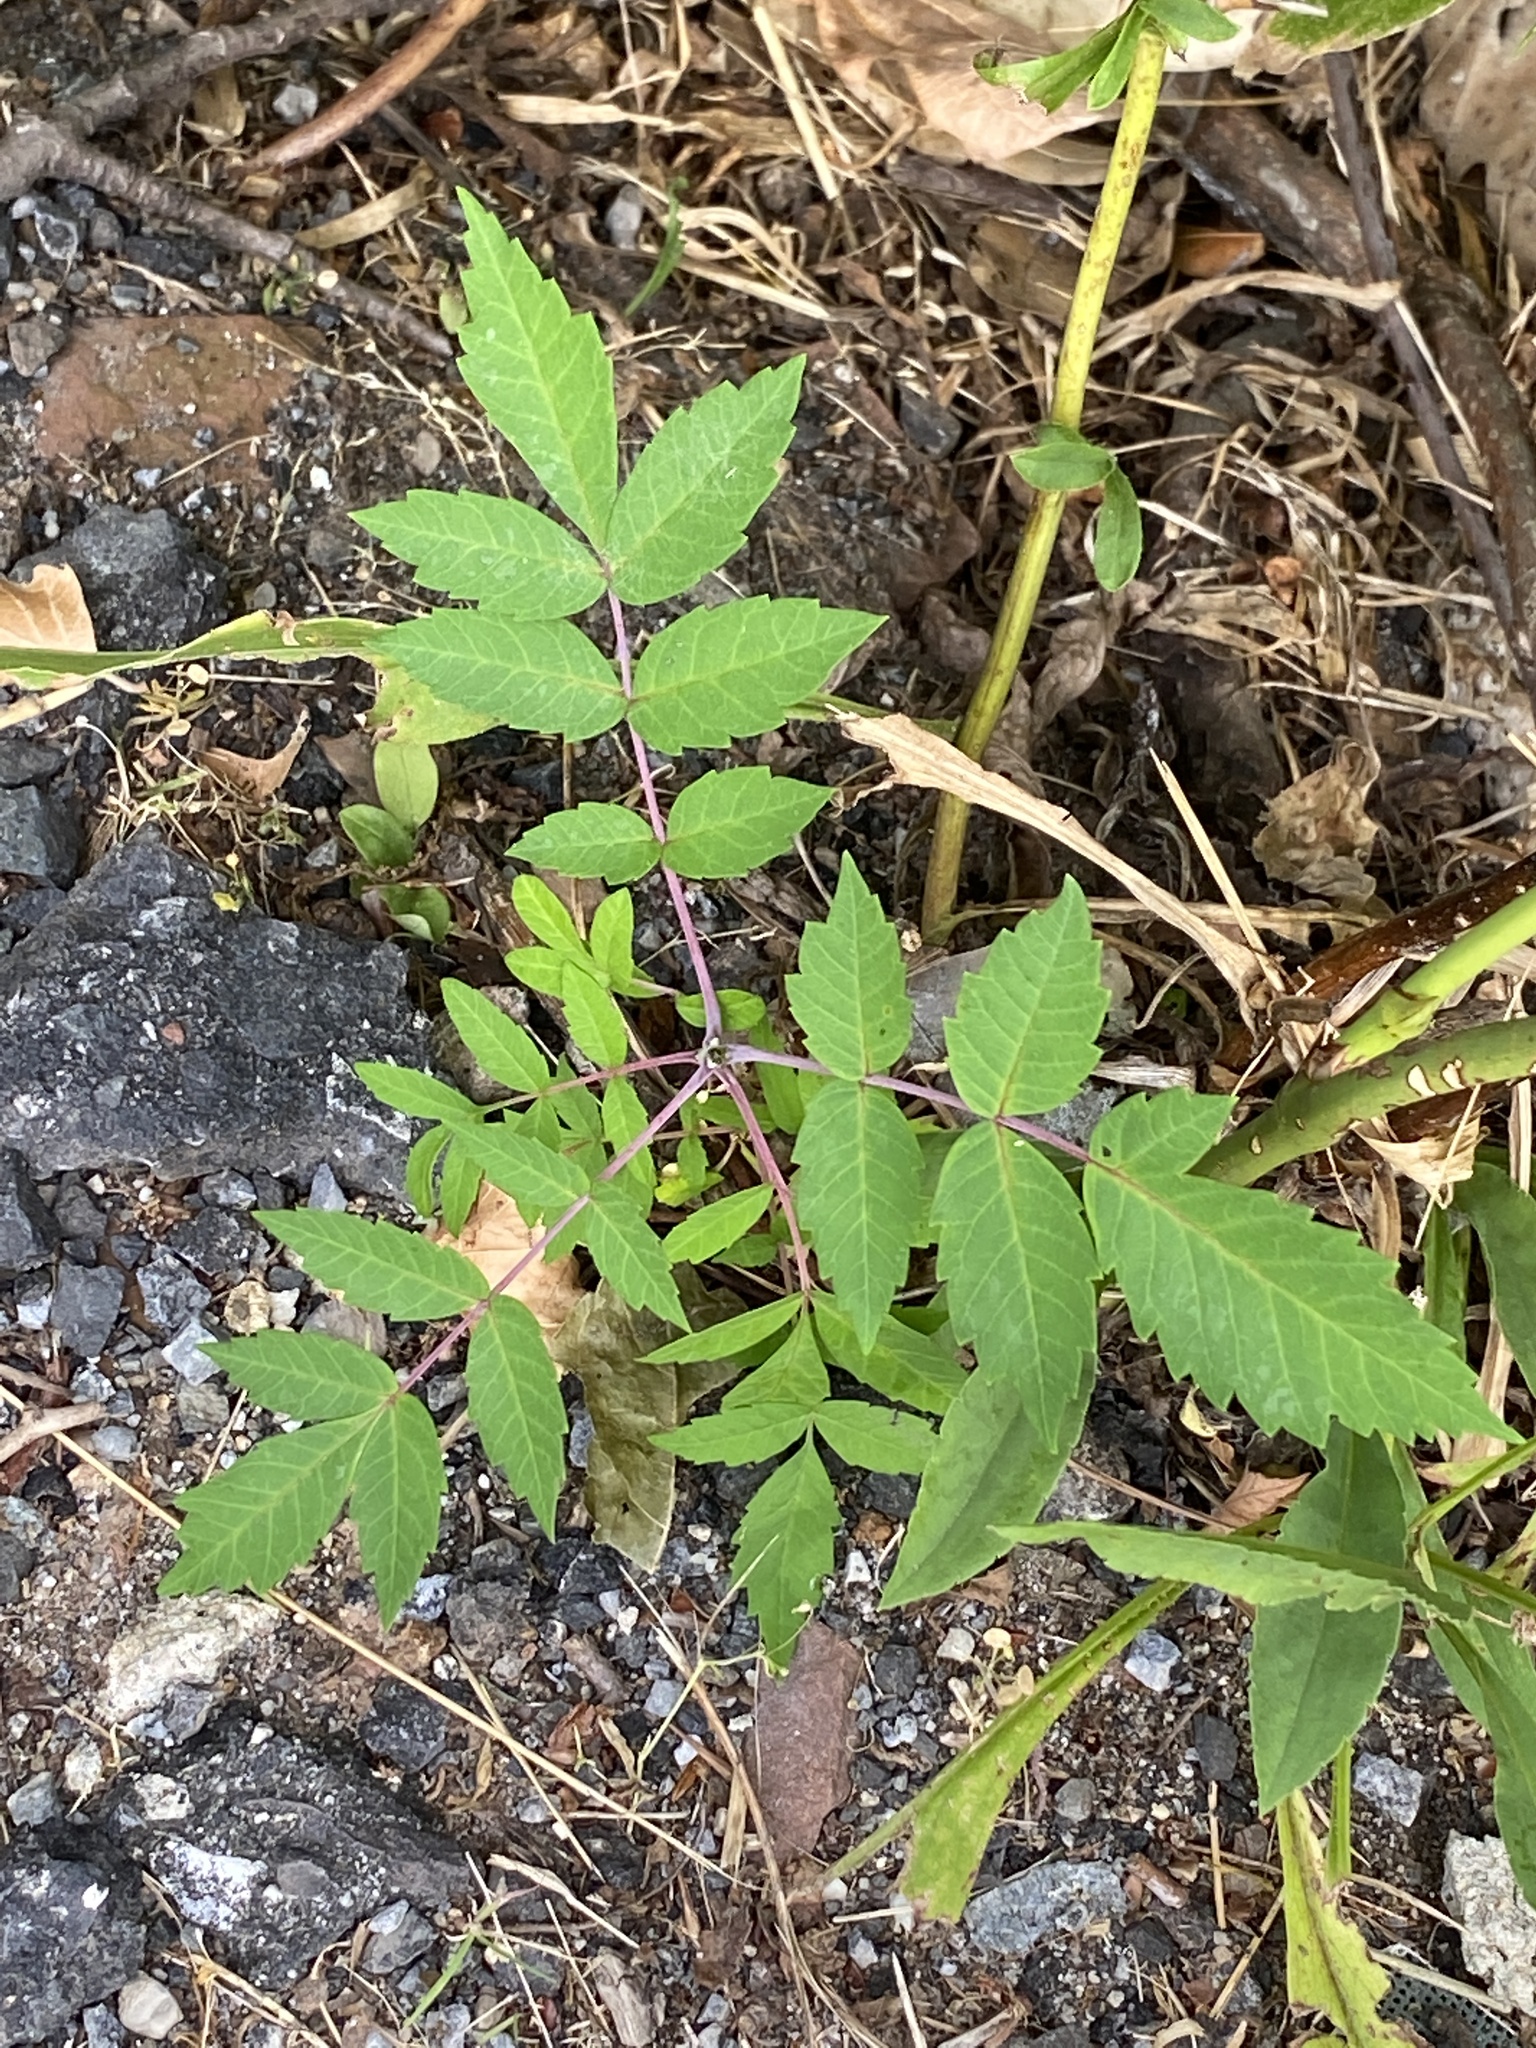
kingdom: Plantae
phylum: Tracheophyta
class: Magnoliopsida
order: Sapindales
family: Anacardiaceae
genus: Rhus
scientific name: Rhus glabra
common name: Scarlet sumac
